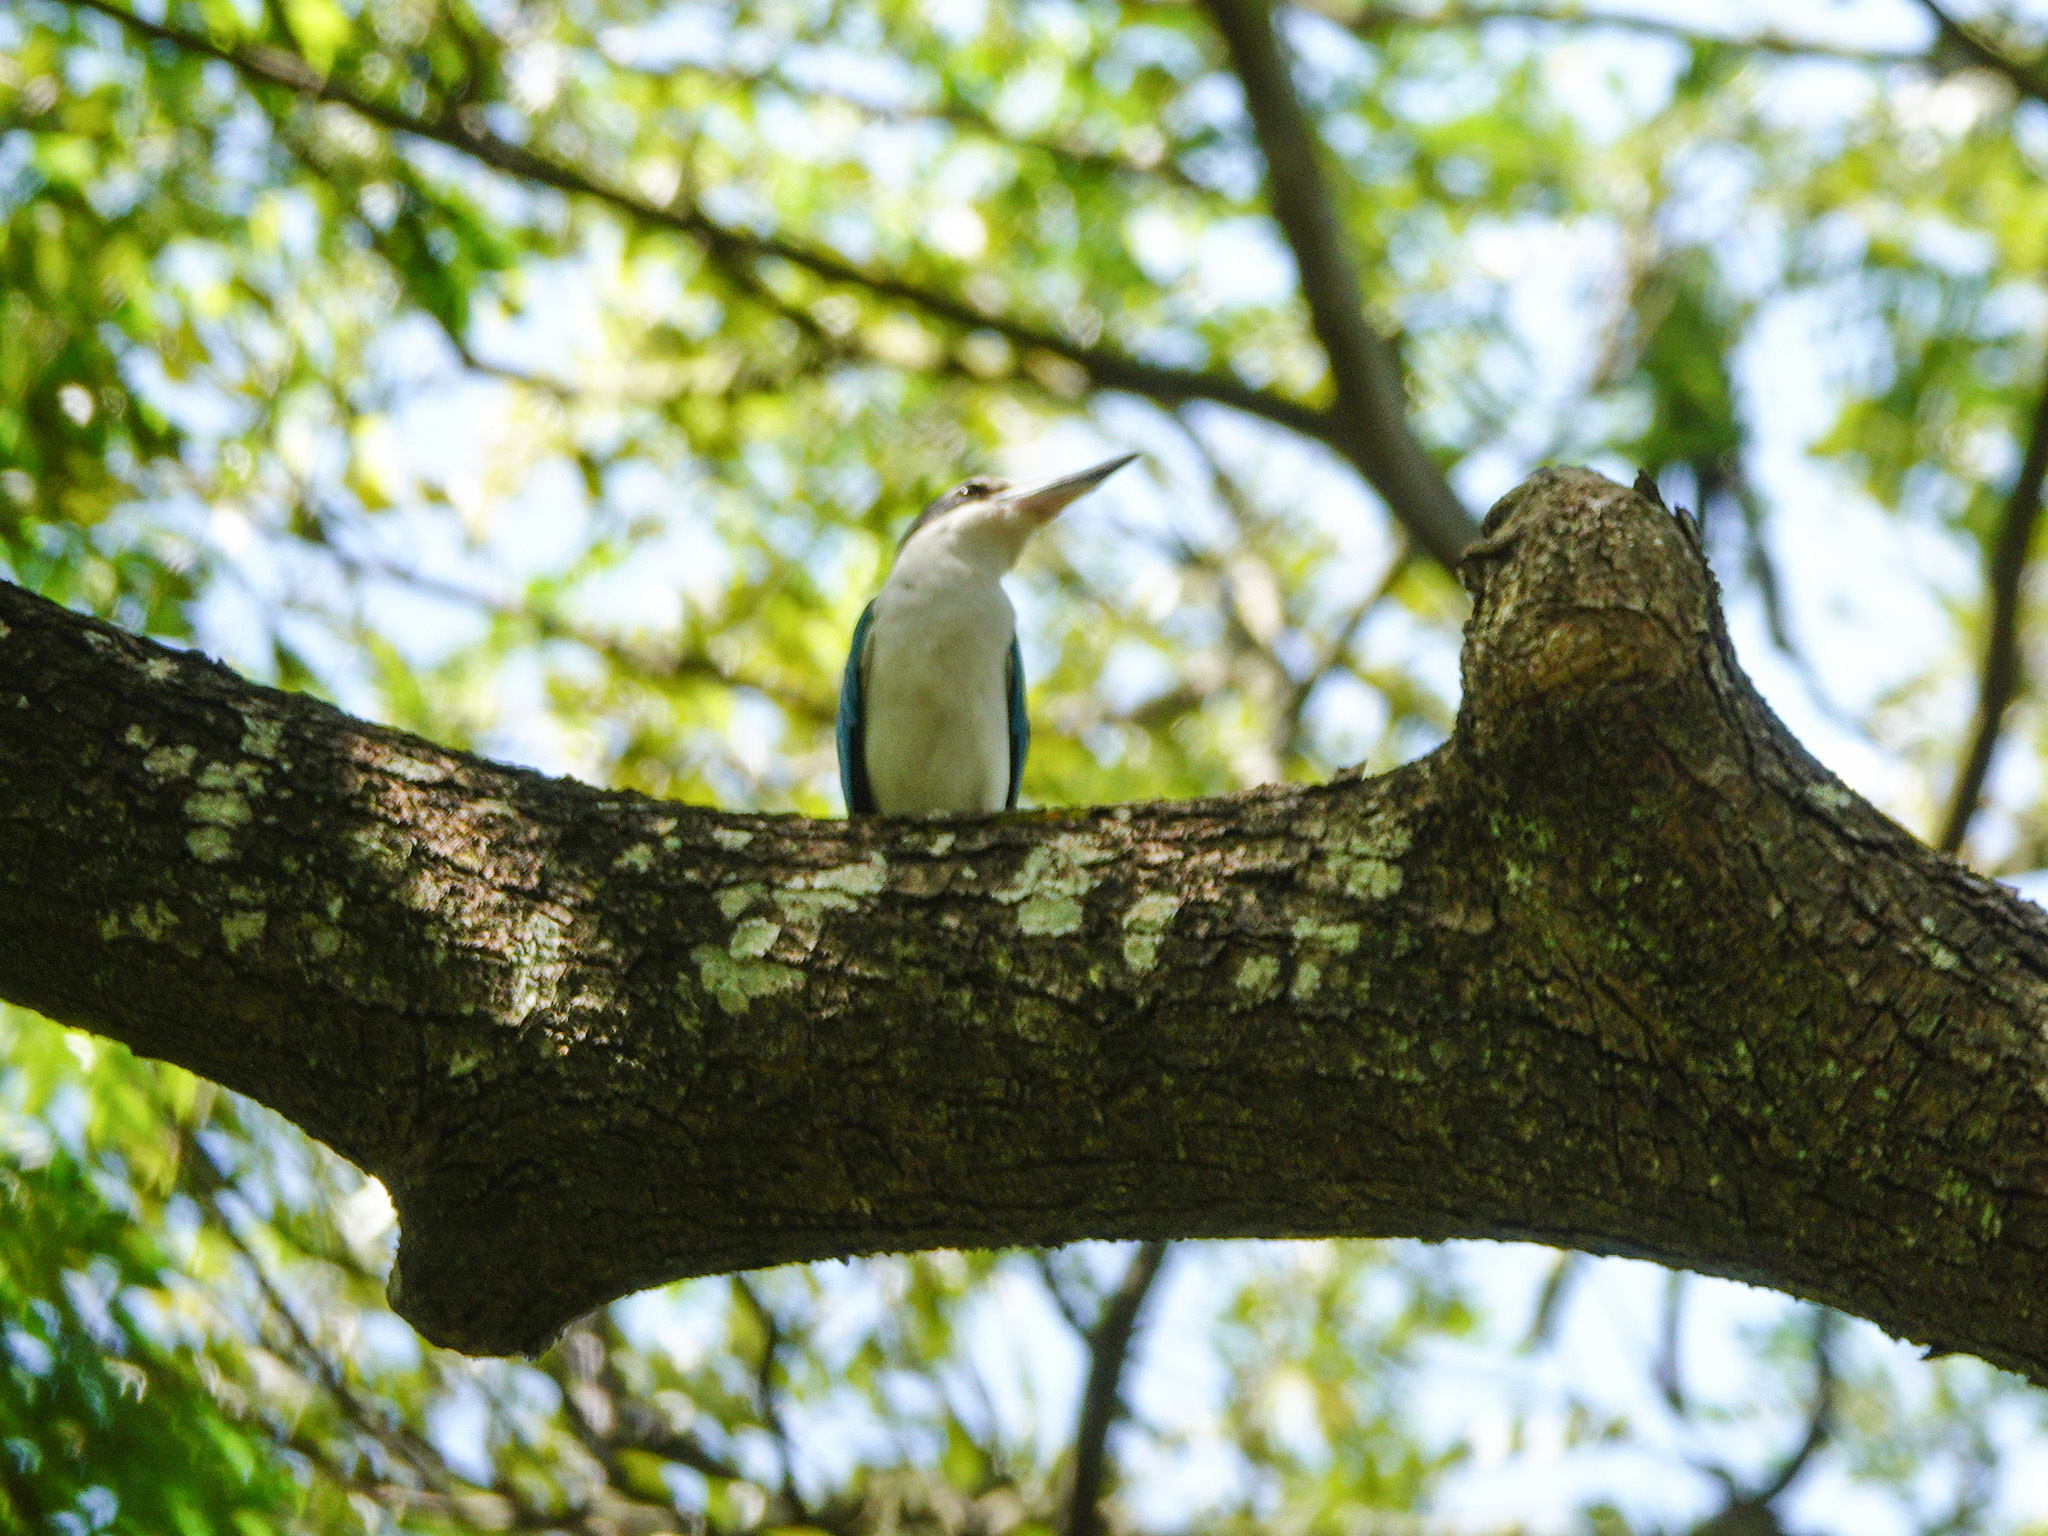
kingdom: Animalia
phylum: Chordata
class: Aves
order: Coraciiformes
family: Alcedinidae
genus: Todiramphus
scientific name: Todiramphus chloris
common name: Collared kingfisher
